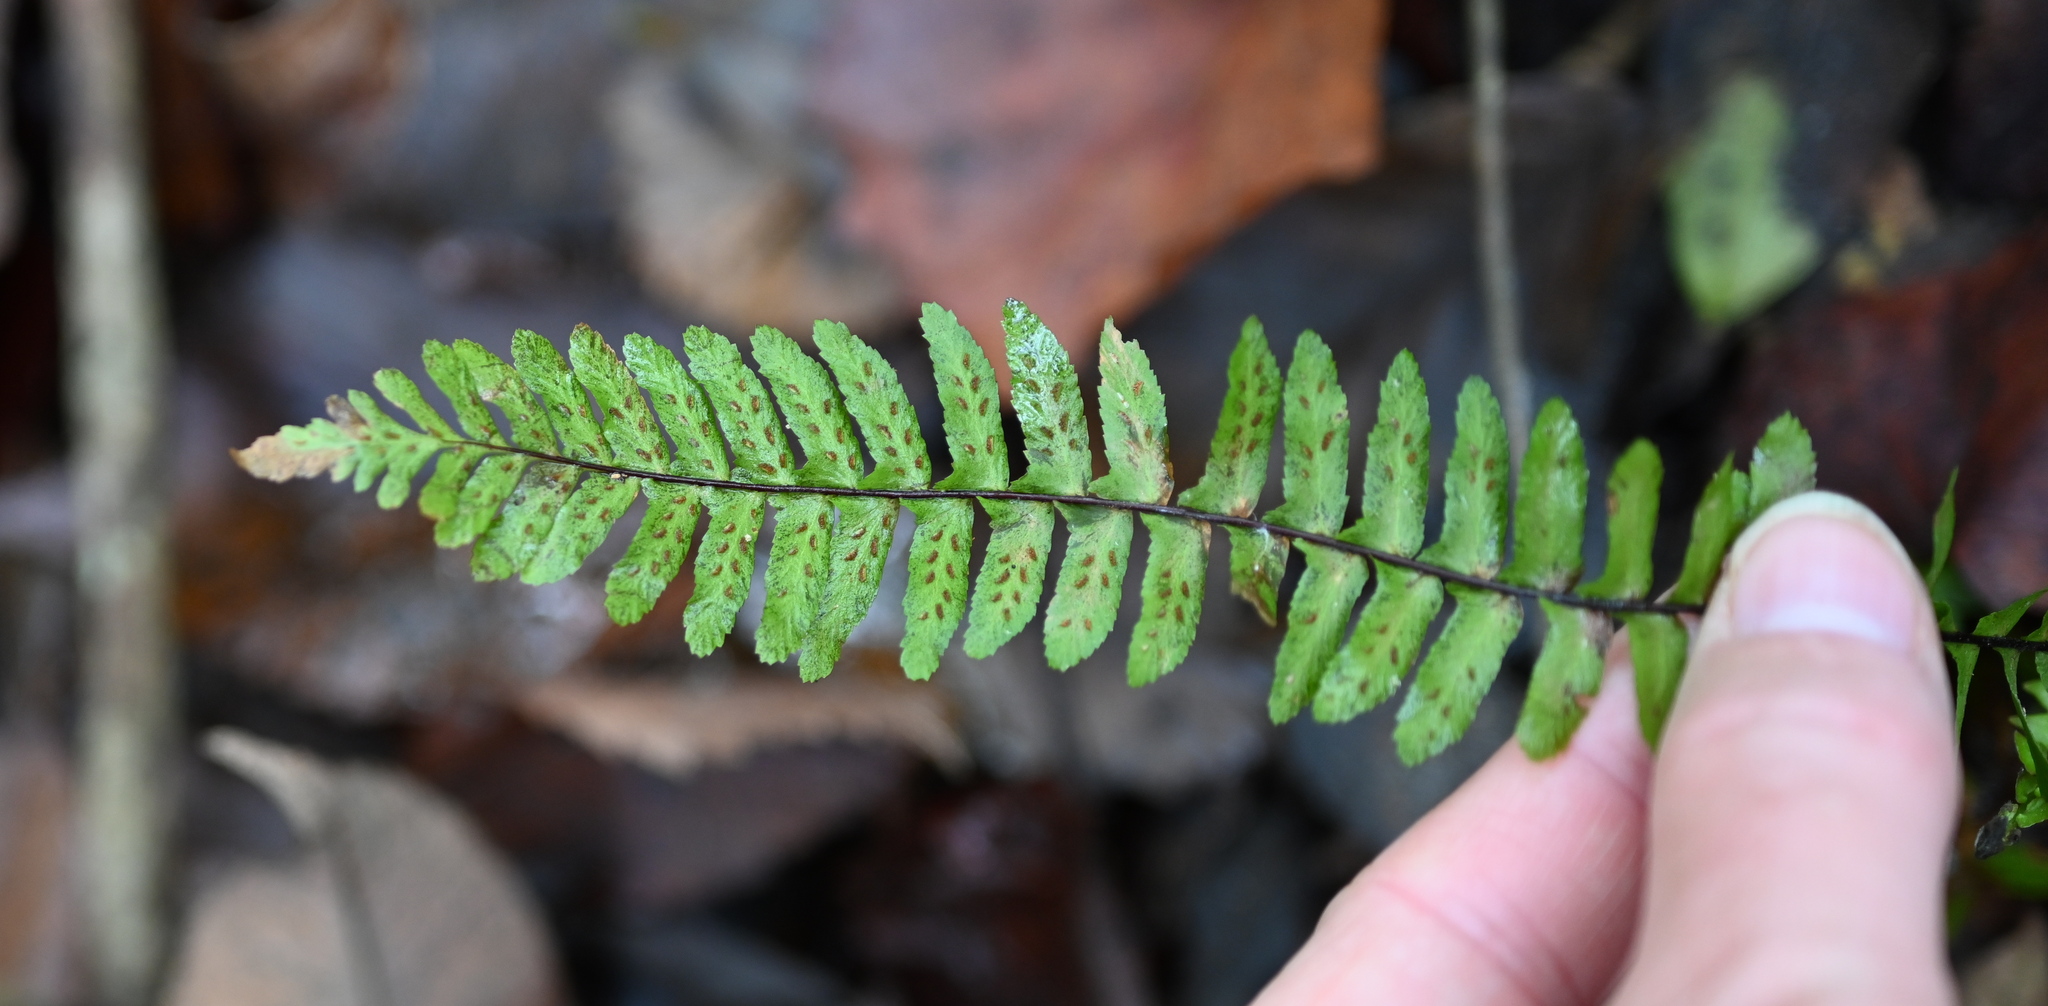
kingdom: Plantae
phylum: Tracheophyta
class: Polypodiopsida
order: Polypodiales
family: Aspleniaceae
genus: Asplenium
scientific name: Asplenium platyneuron
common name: Ebony spleenwort
